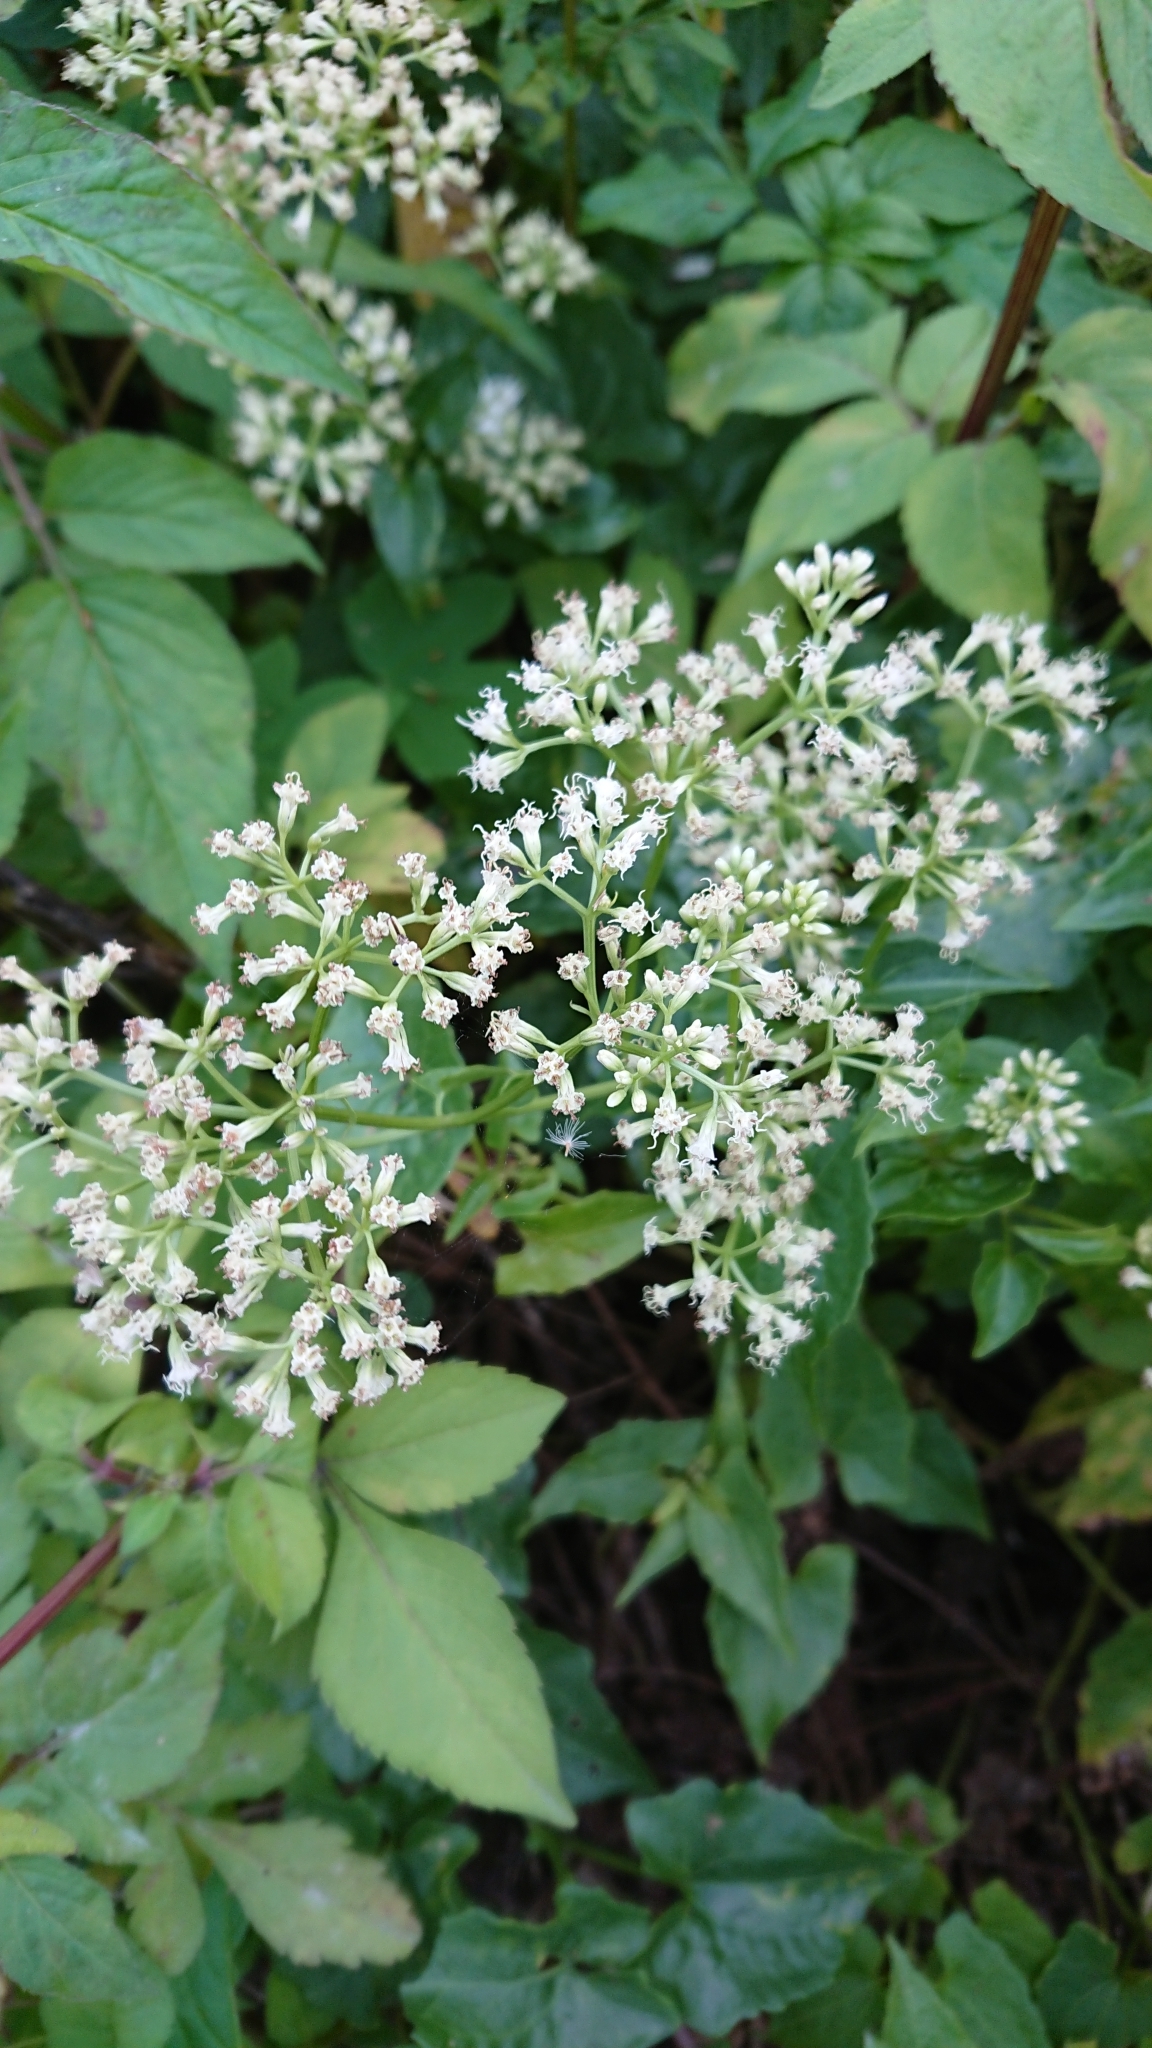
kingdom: Plantae
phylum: Tracheophyta
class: Magnoliopsida
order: Asterales
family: Asteraceae
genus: Mikania
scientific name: Mikania micrantha
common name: Mile-a-minute
